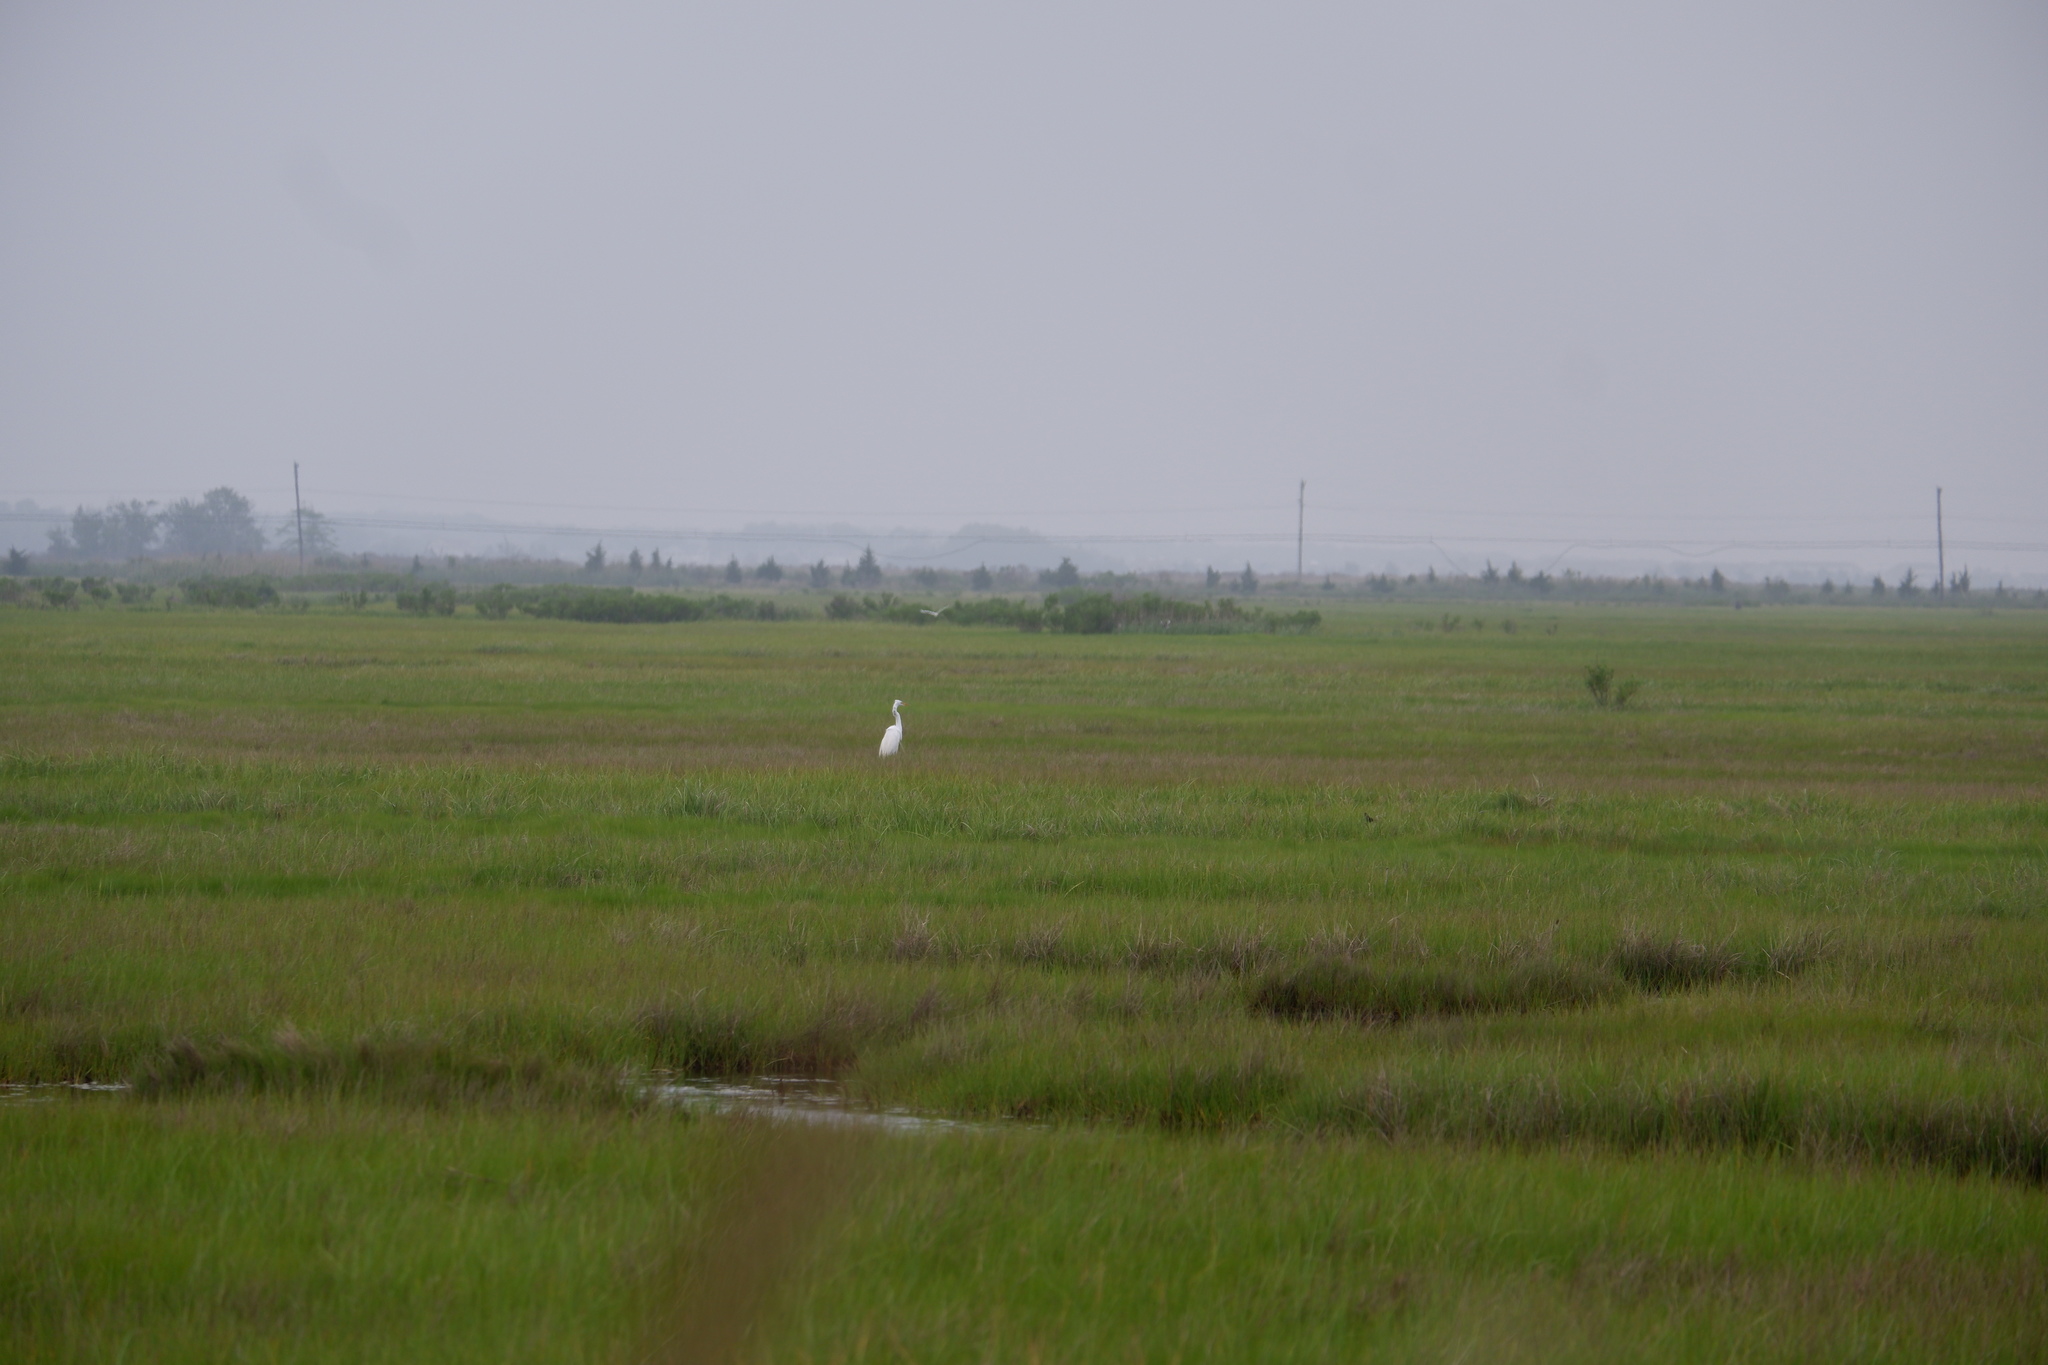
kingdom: Animalia
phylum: Chordata
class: Aves
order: Pelecaniformes
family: Ardeidae
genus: Ardea
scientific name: Ardea alba
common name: Great egret
